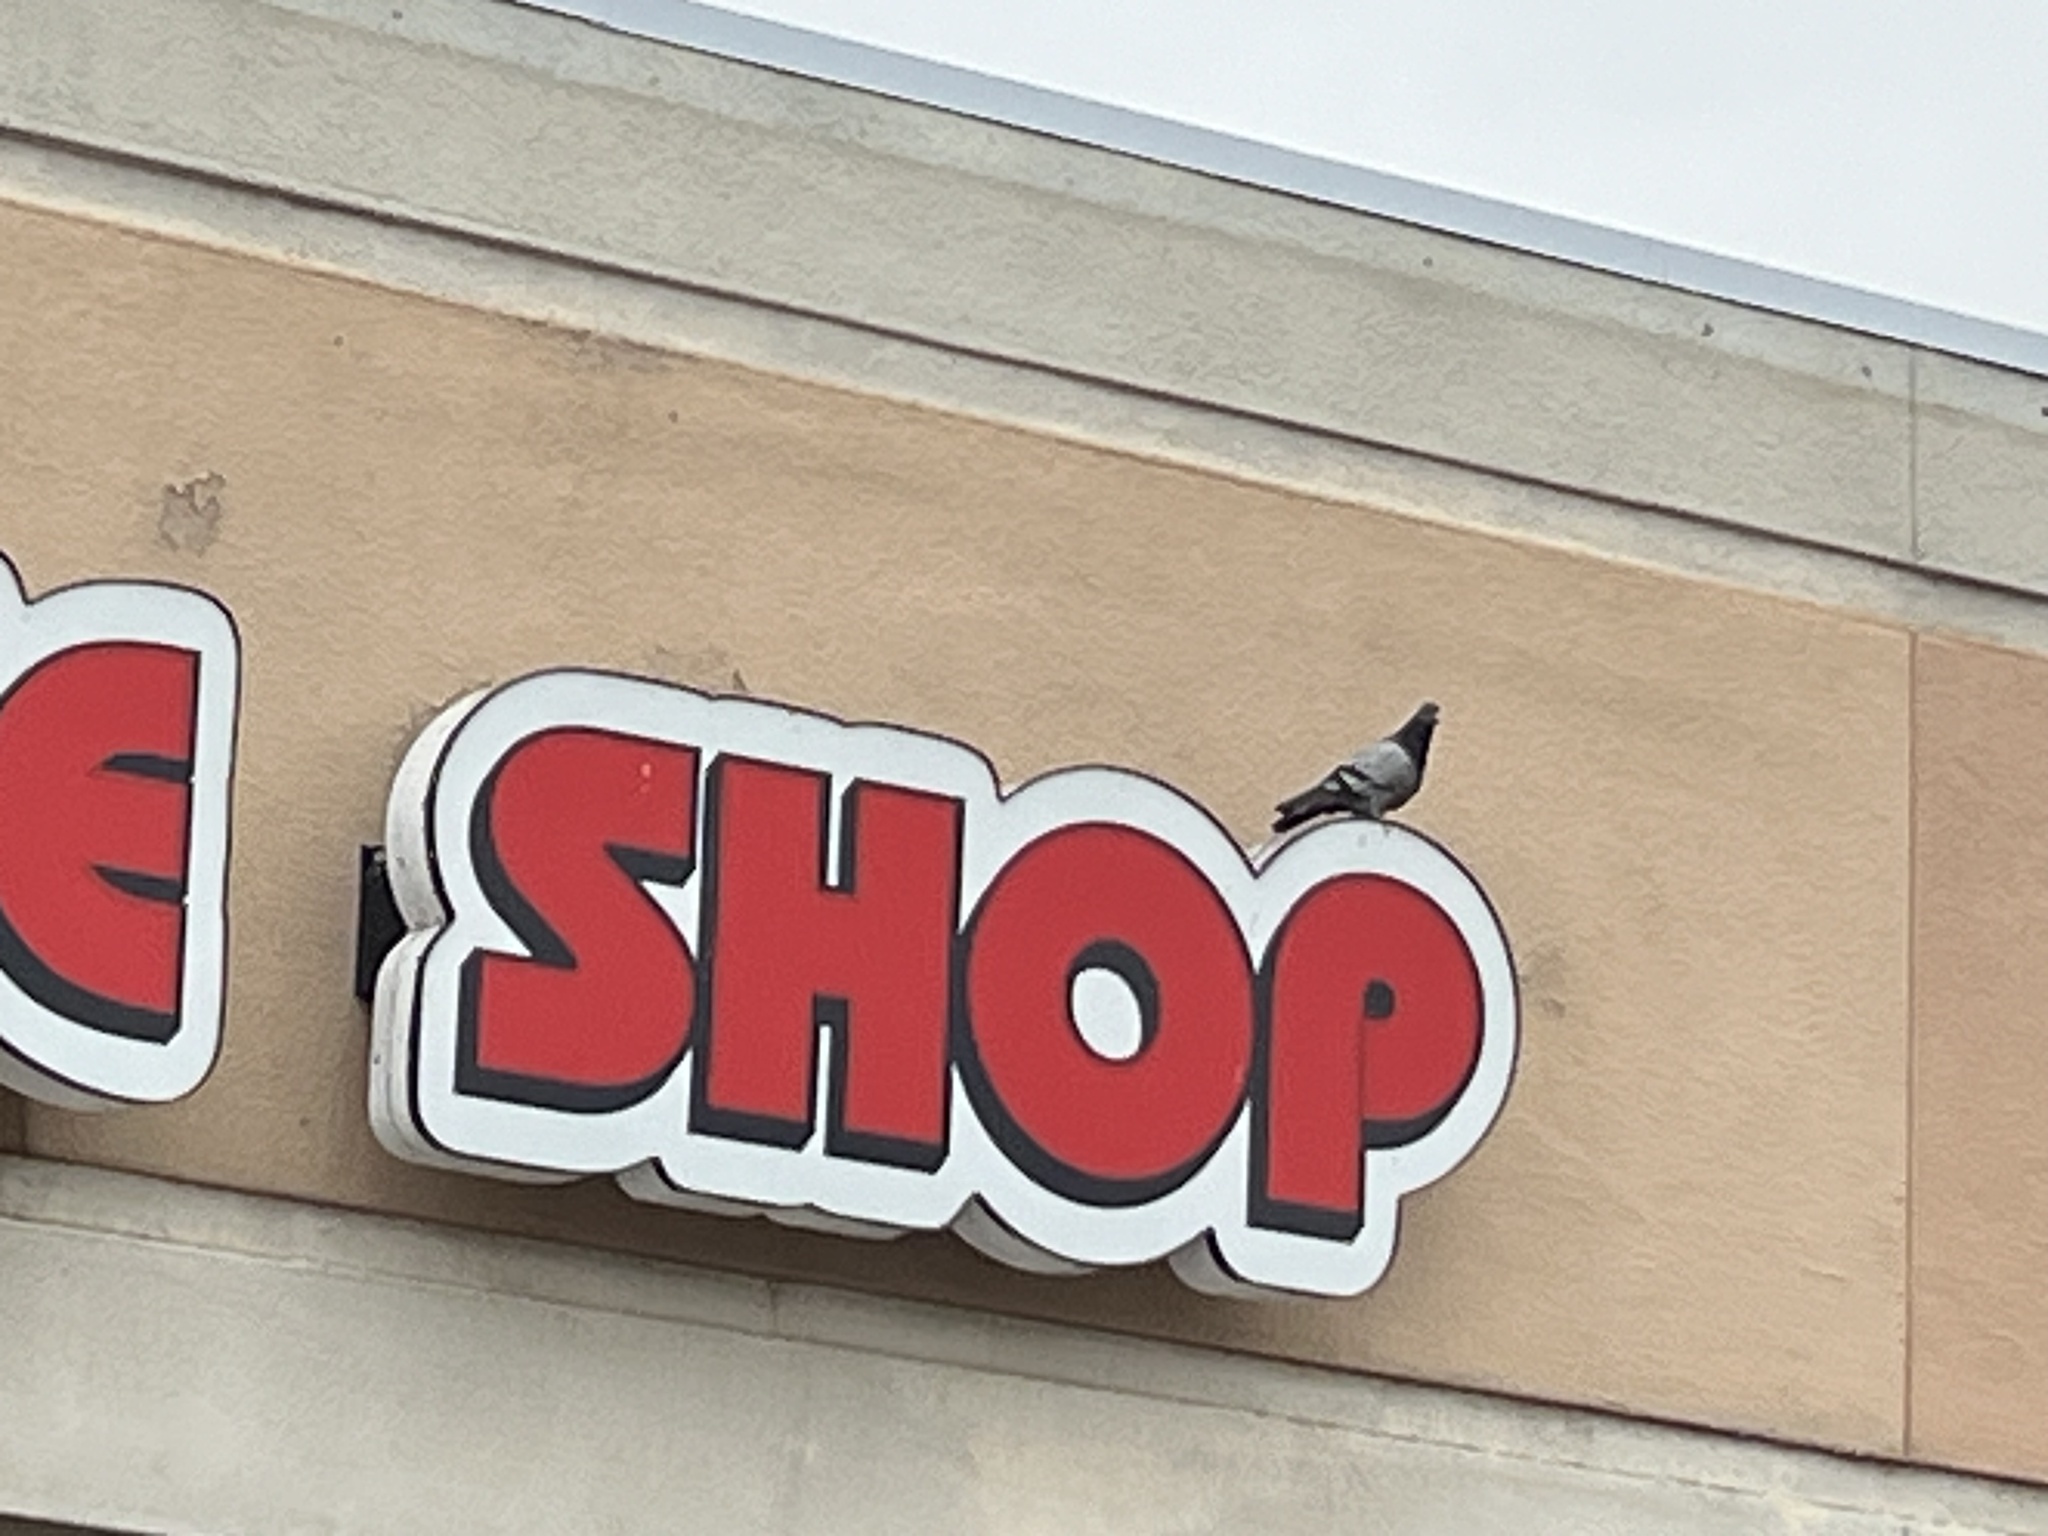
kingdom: Animalia
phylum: Chordata
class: Aves
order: Columbiformes
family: Columbidae
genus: Columba
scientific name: Columba livia
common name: Rock pigeon
